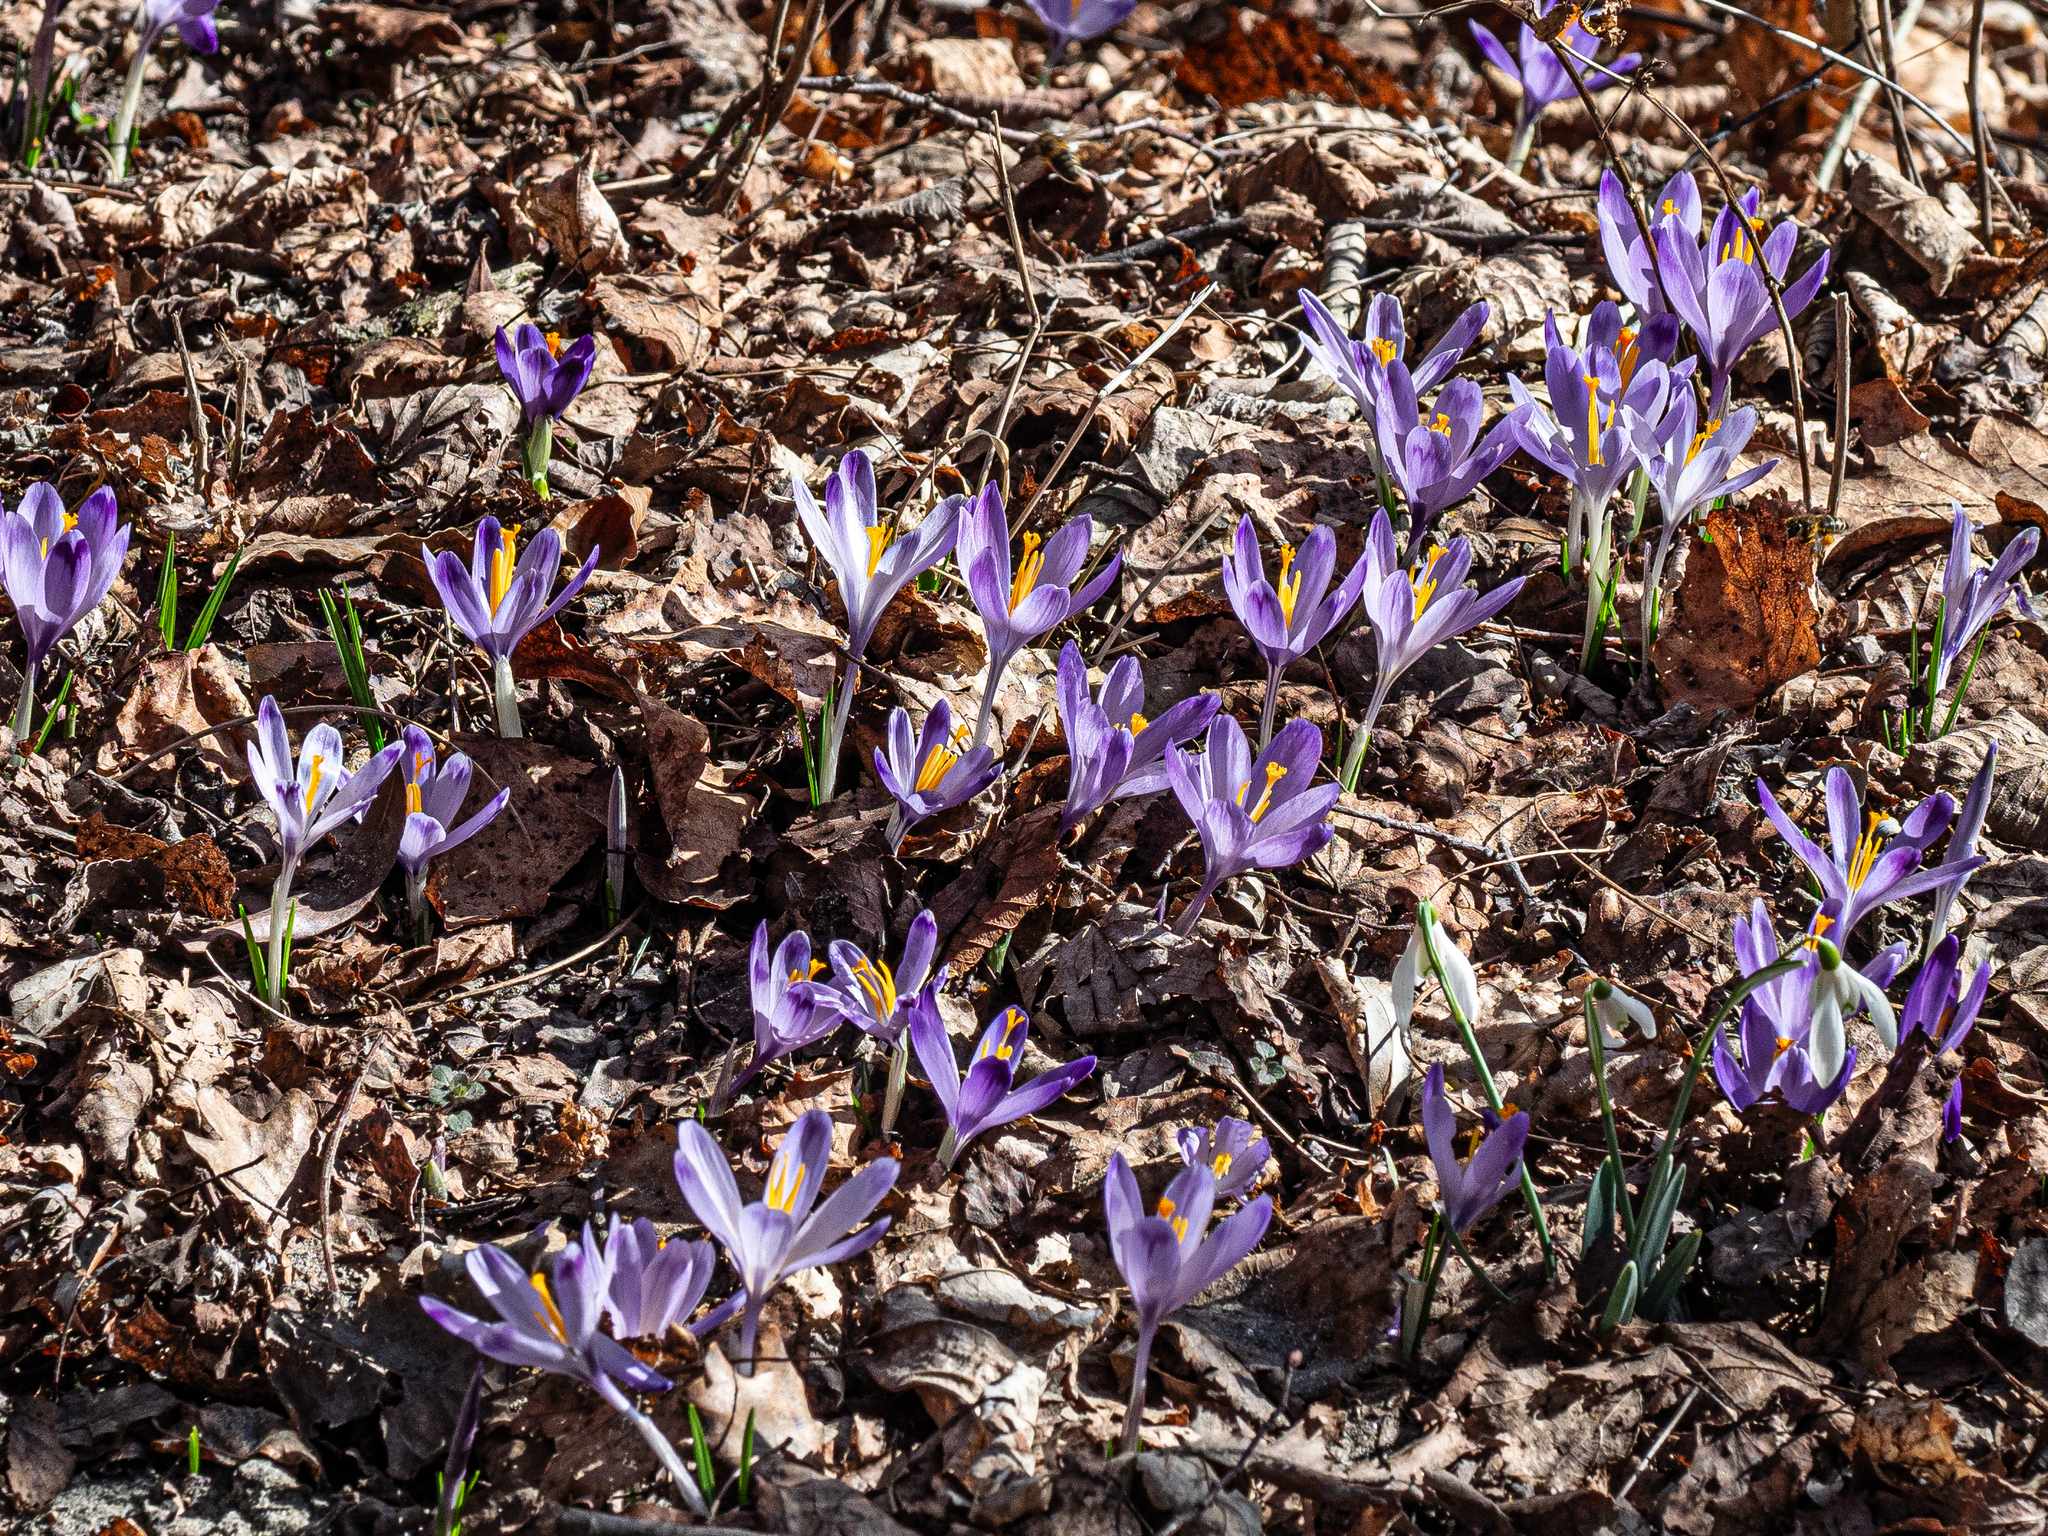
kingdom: Plantae
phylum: Tracheophyta
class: Liliopsida
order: Asparagales
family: Iridaceae
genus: Crocus
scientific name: Crocus heuffelianus
